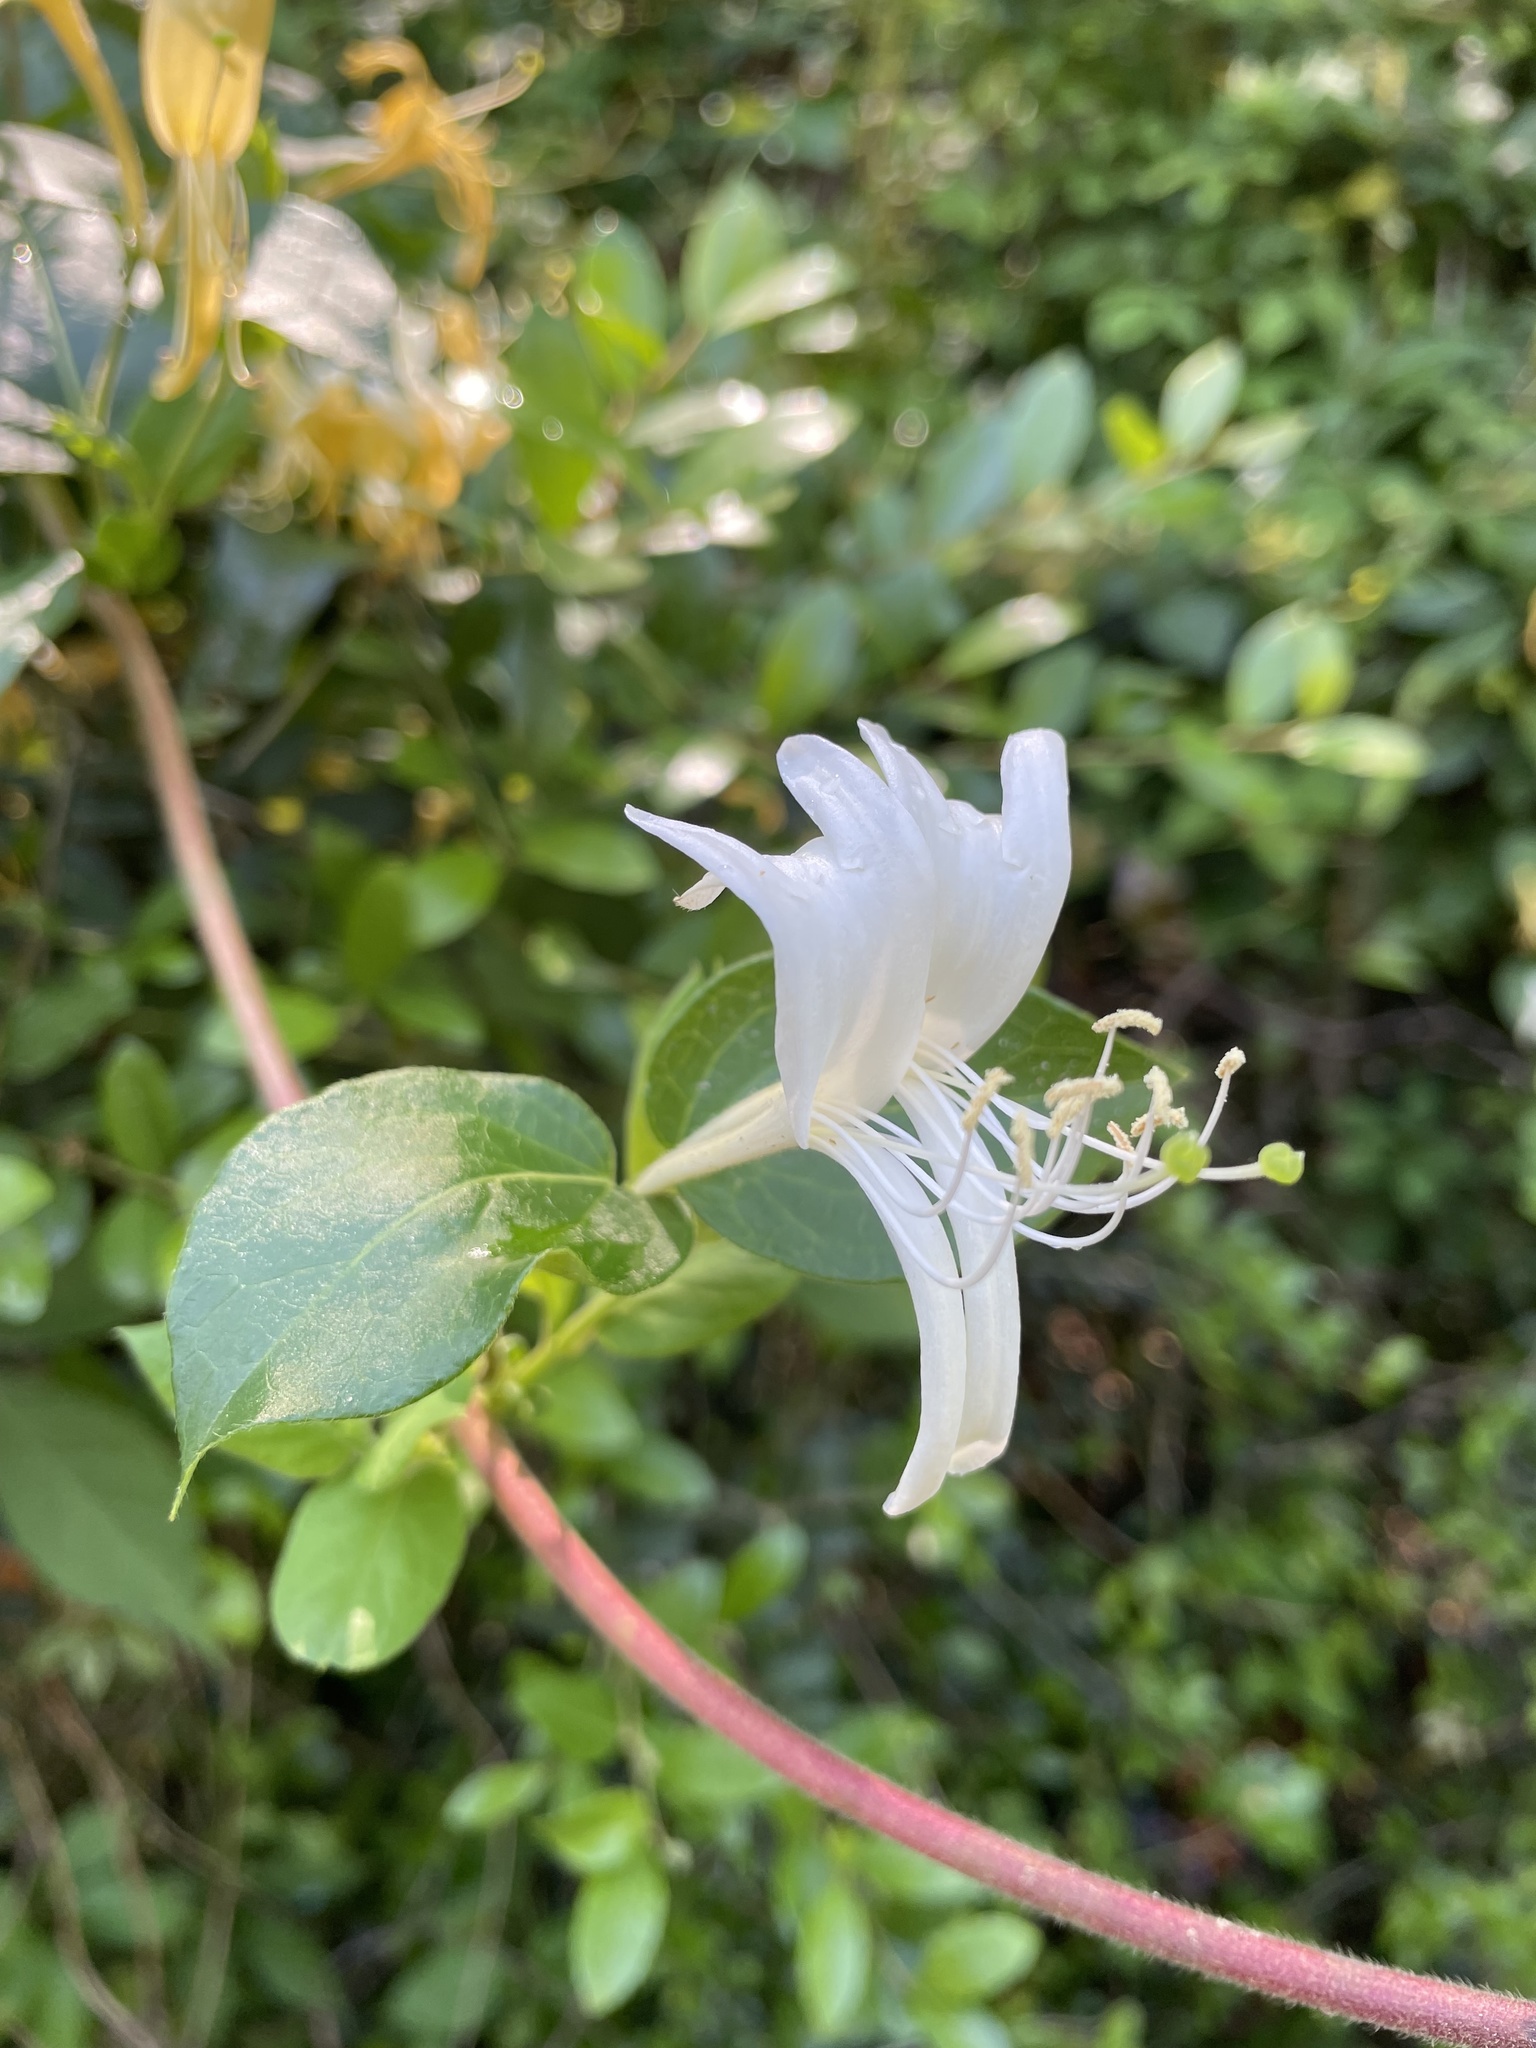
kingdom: Plantae
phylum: Tracheophyta
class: Magnoliopsida
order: Dipsacales
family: Caprifoliaceae
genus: Lonicera
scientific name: Lonicera japonica
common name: Japanese honeysuckle
